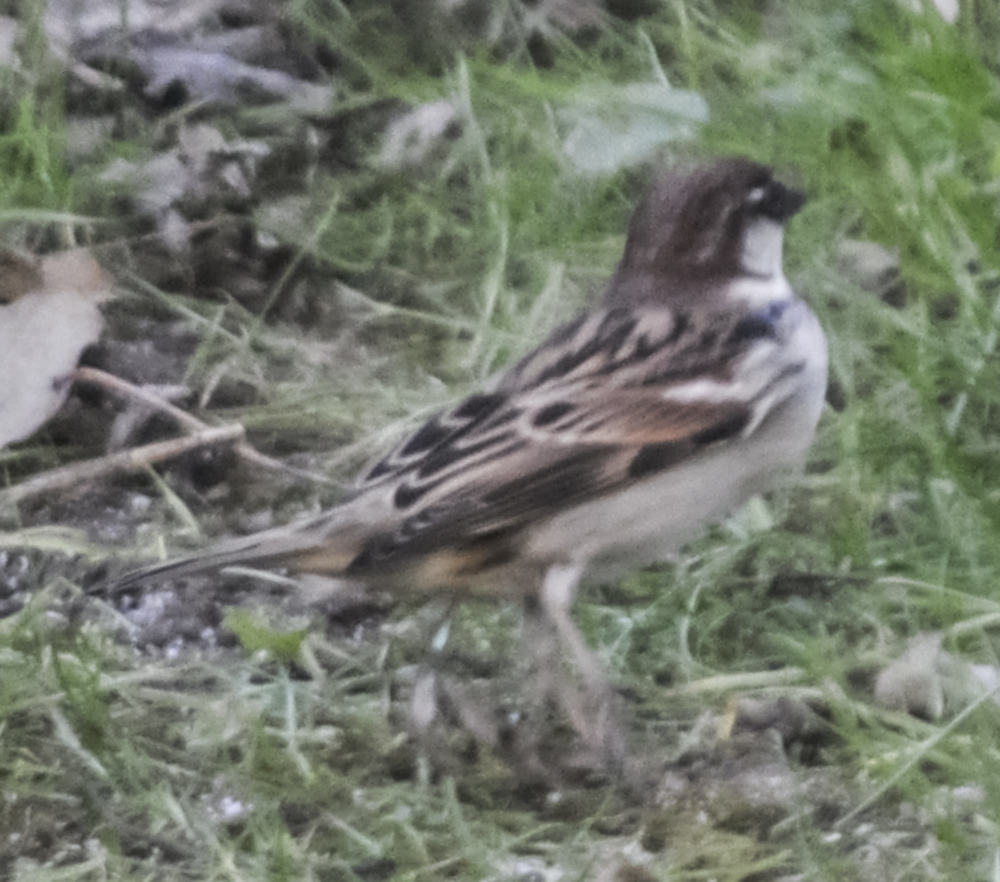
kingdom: Animalia
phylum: Chordata
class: Aves
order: Passeriformes
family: Passeridae
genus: Passer
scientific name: Passer italiae
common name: Italian sparrow
